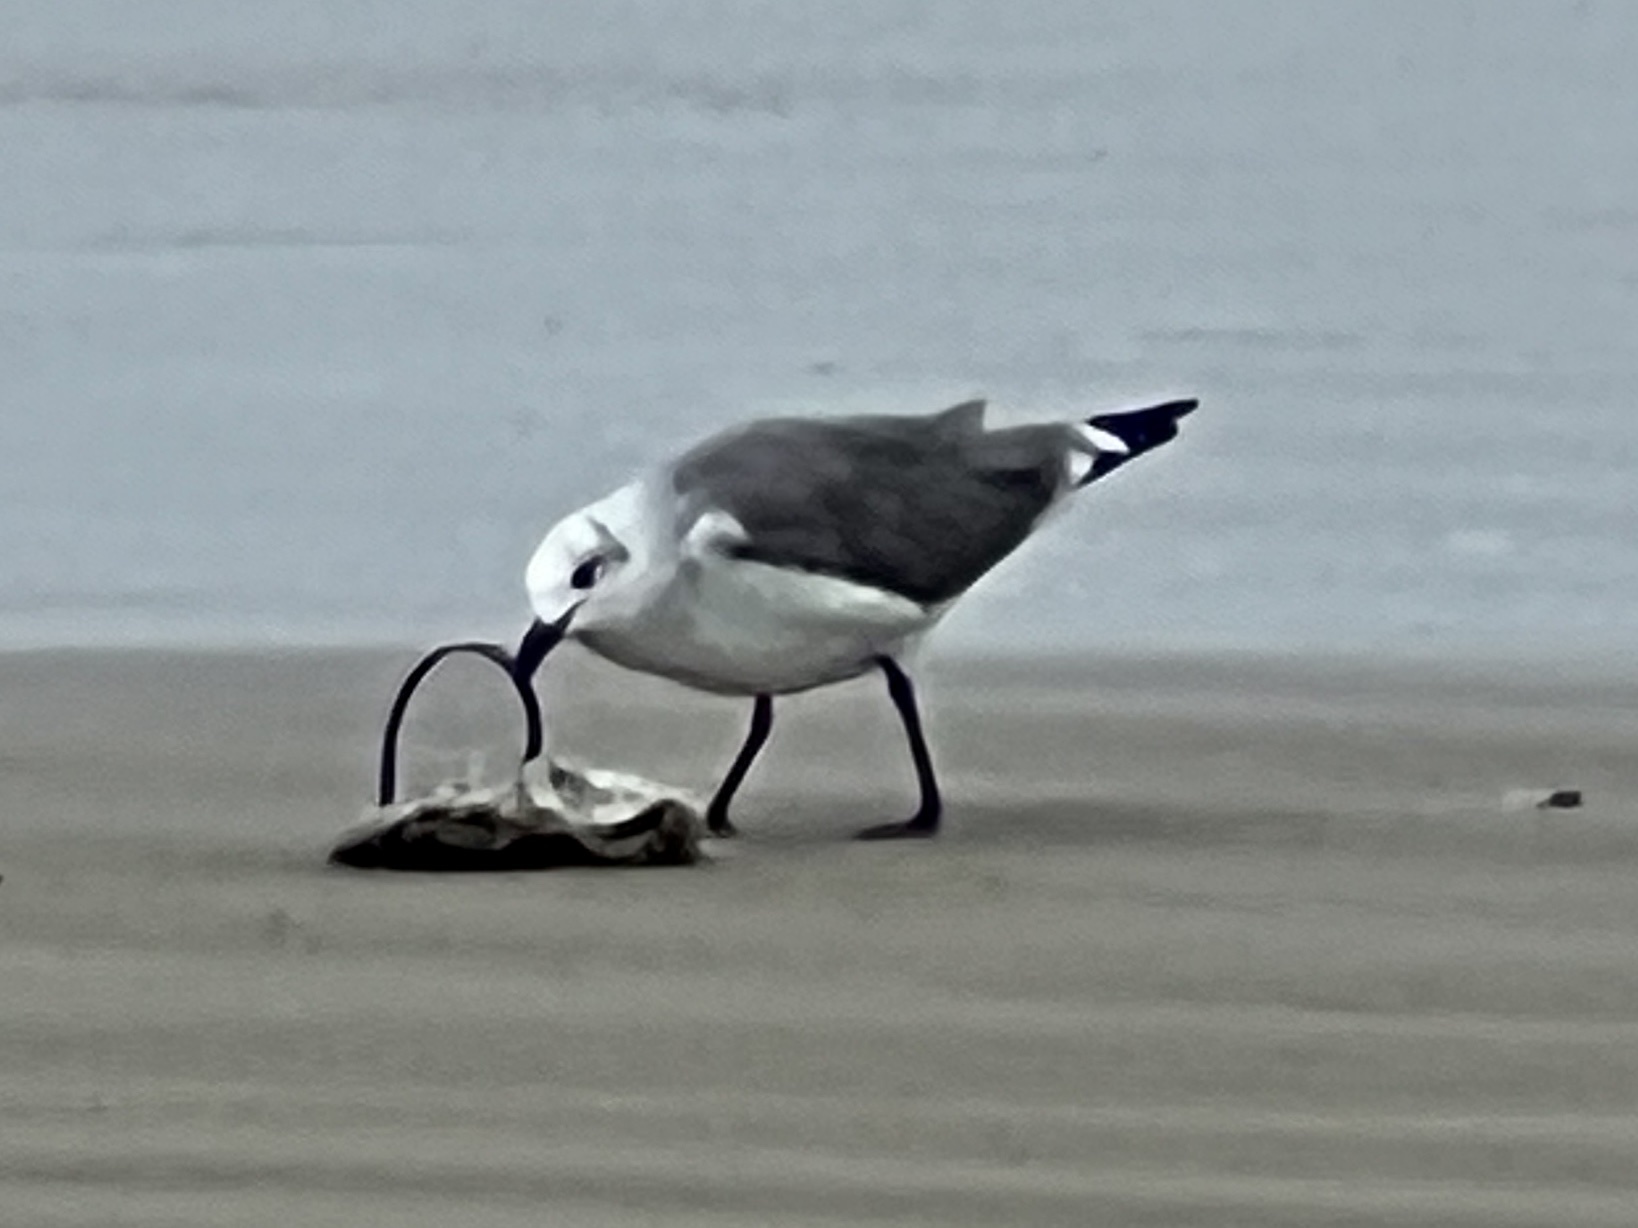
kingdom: Animalia
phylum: Chordata
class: Aves
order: Charadriiformes
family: Laridae
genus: Leucophaeus
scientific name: Leucophaeus atricilla
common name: Laughing gull
